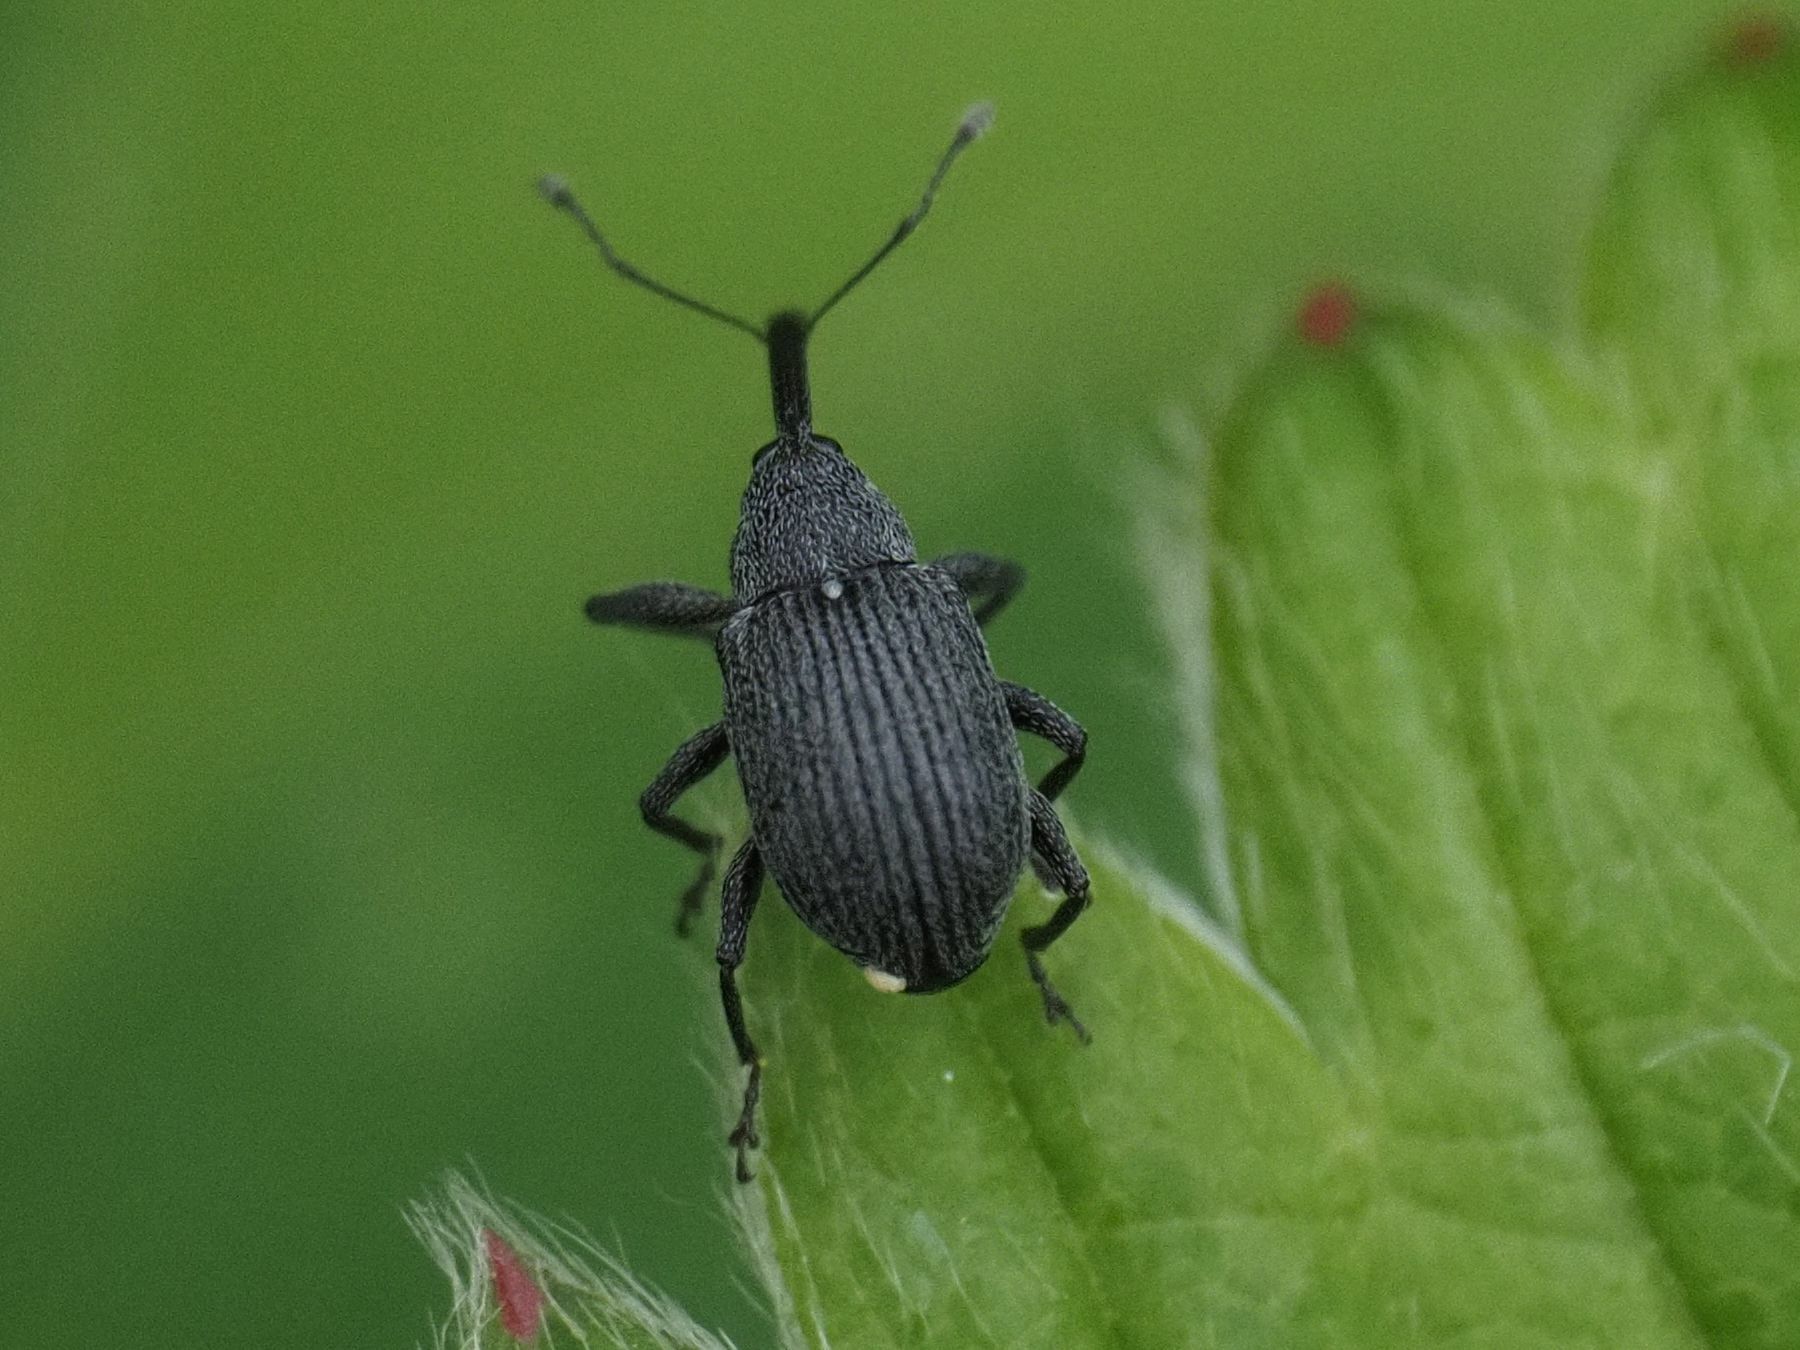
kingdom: Animalia
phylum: Arthropoda
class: Insecta
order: Coleoptera
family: Curculionidae
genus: Anthonomus
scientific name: Anthonomus rubi
